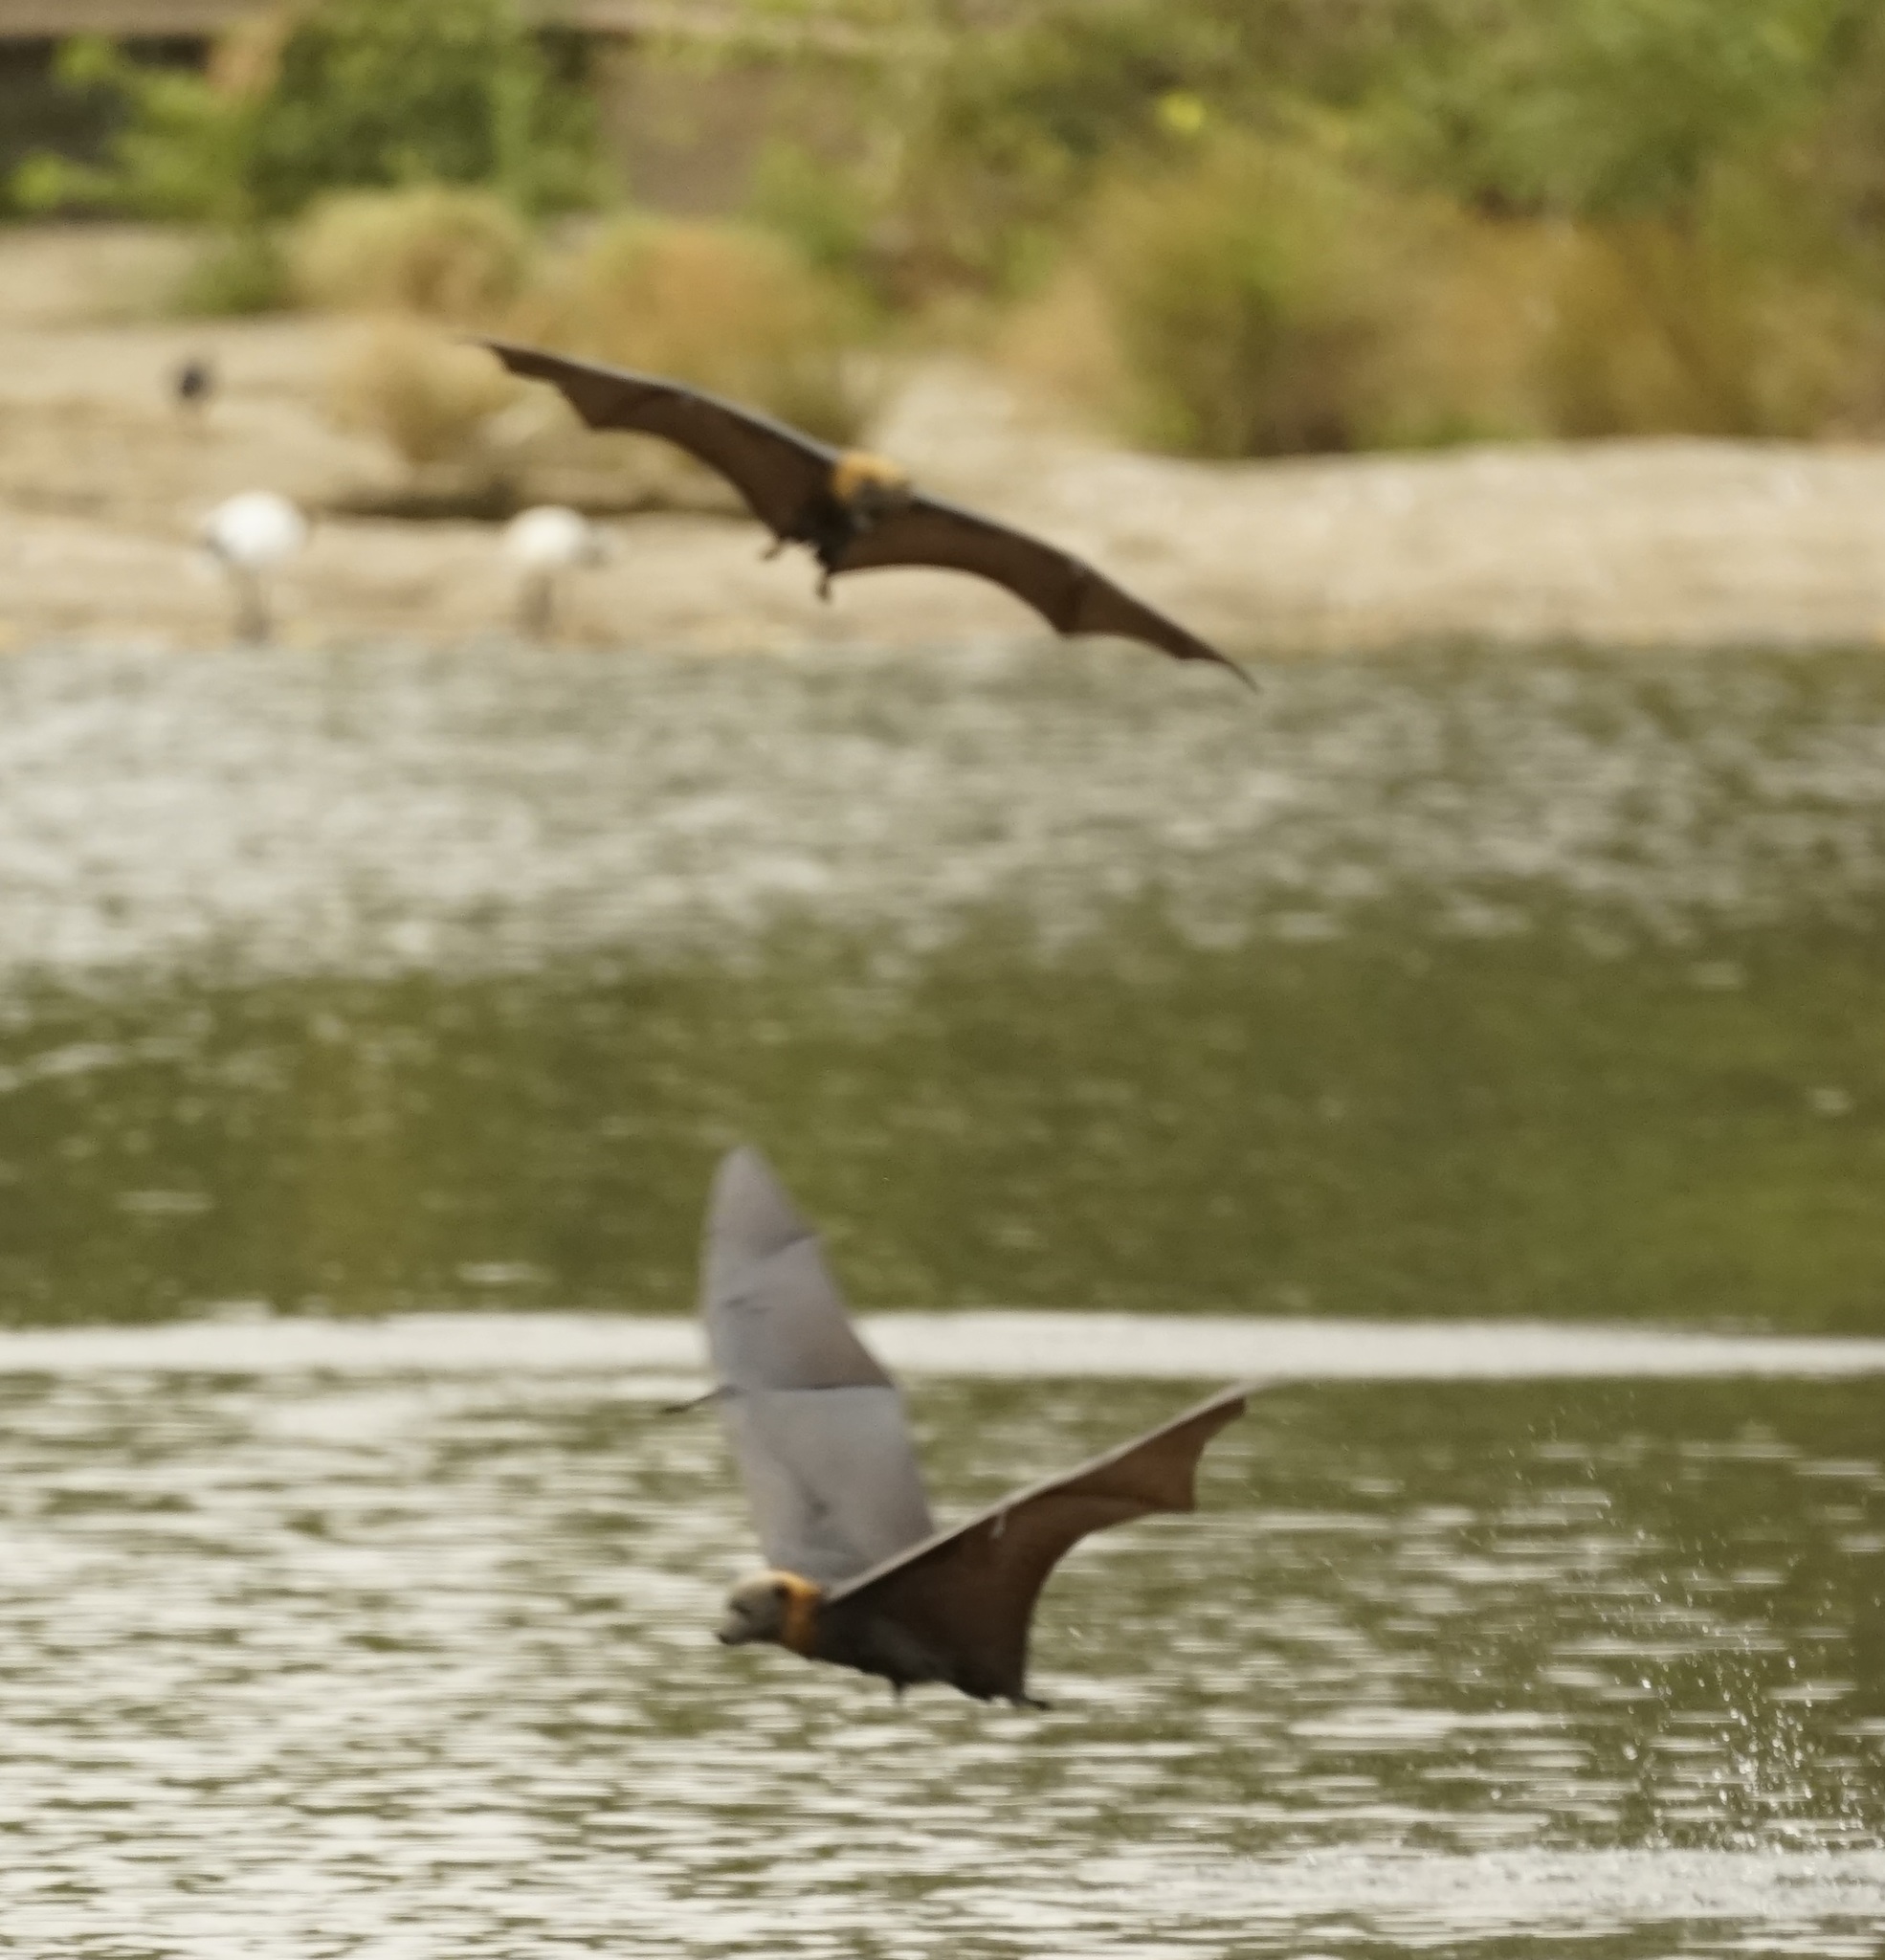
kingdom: Animalia
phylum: Chordata
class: Mammalia
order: Chiroptera
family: Pteropodidae
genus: Pteropus
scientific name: Pteropus poliocephalus
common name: Gray-headed flying fox
